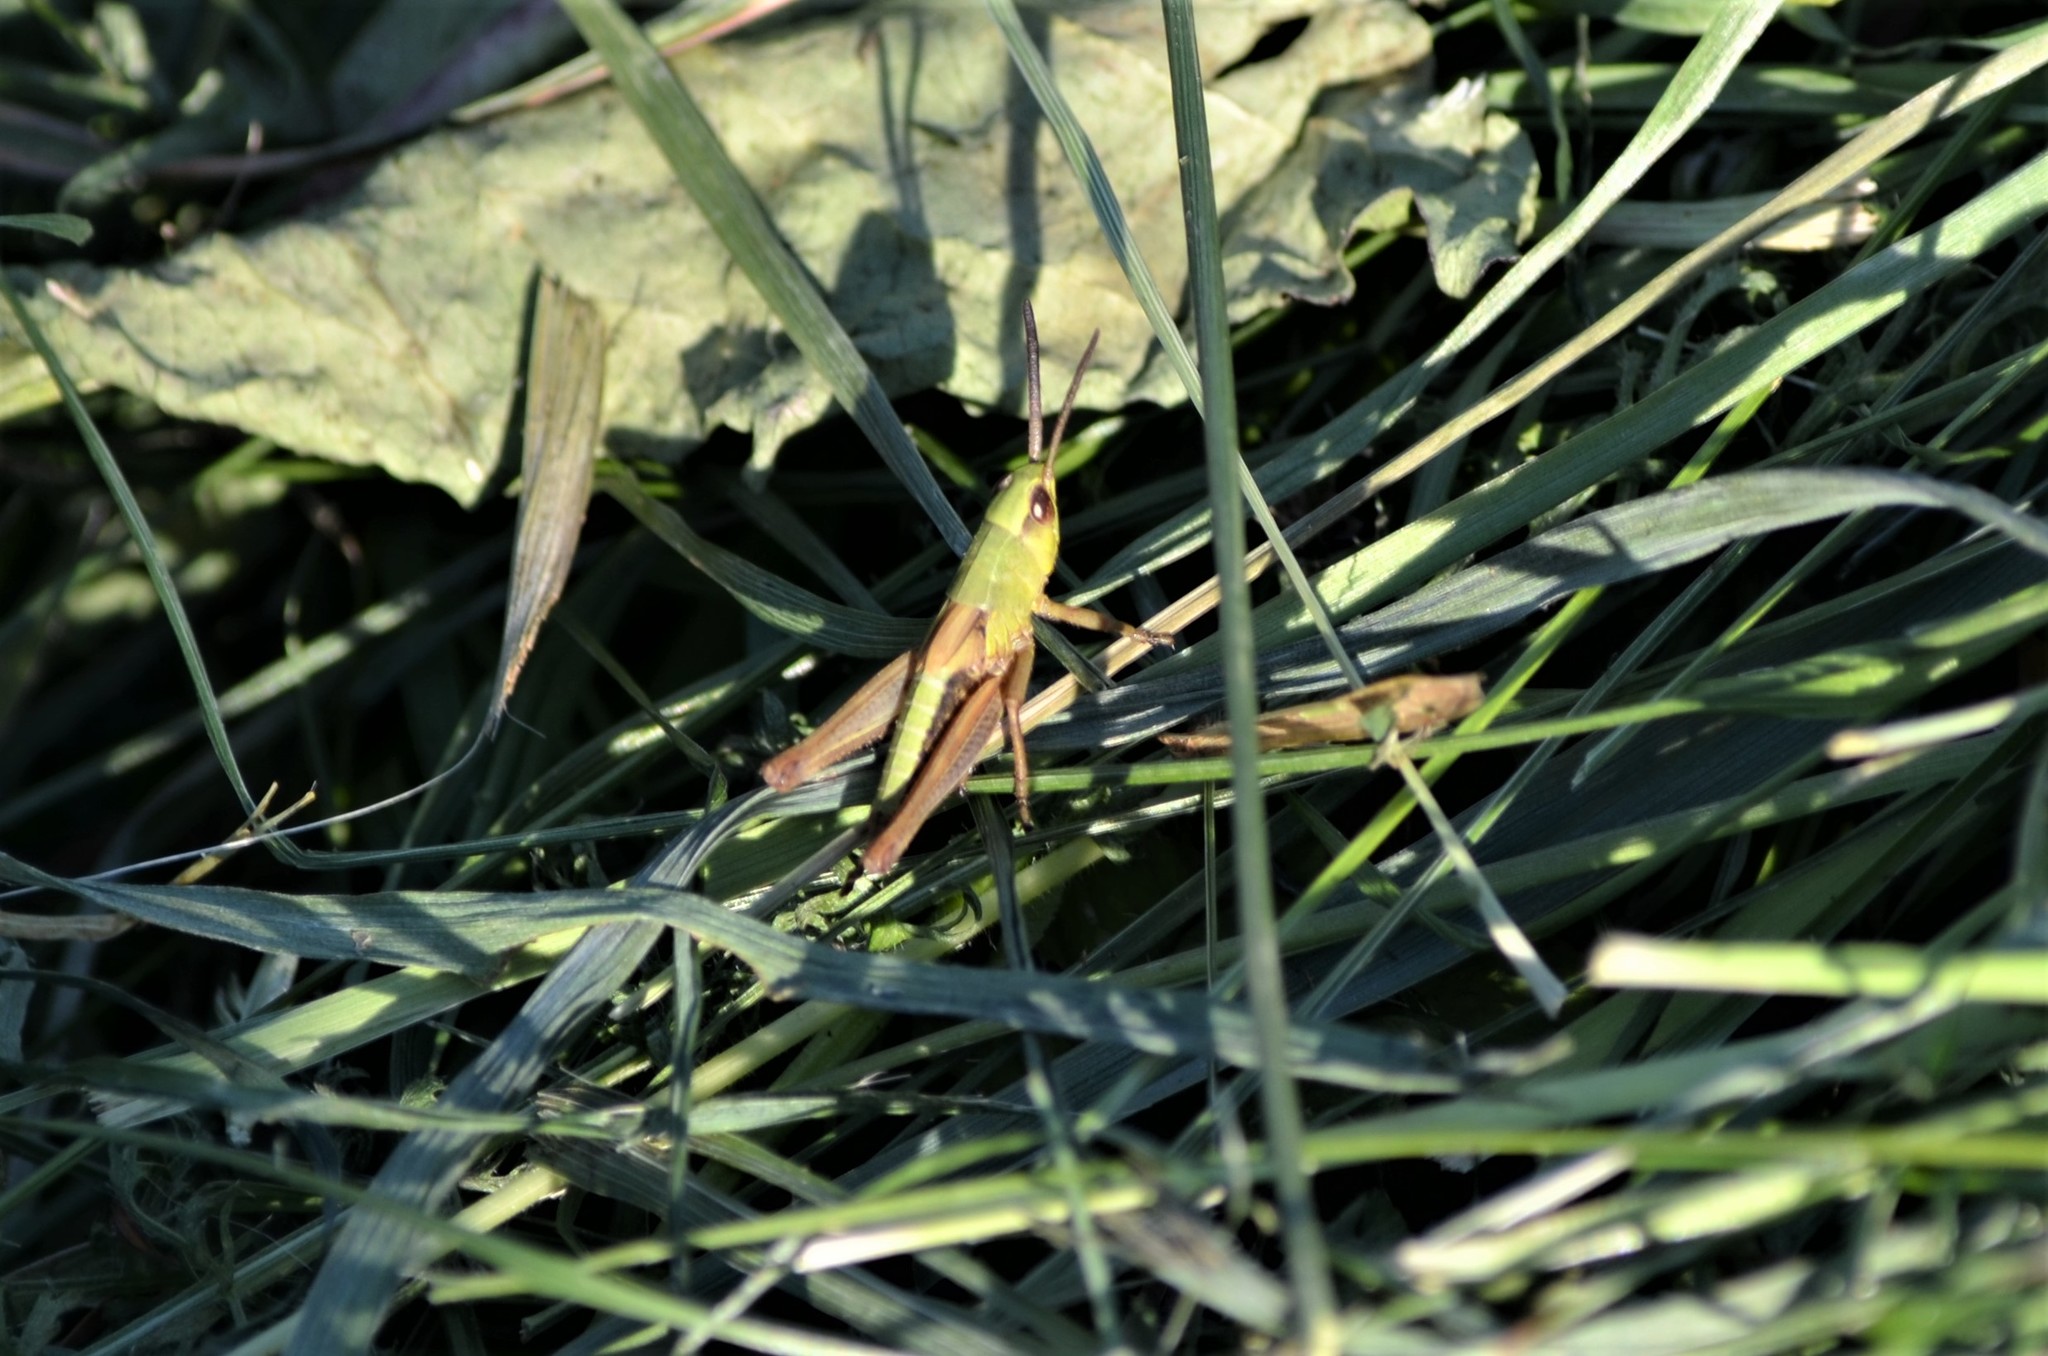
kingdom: Animalia
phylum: Arthropoda
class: Insecta
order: Orthoptera
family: Acrididae
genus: Pseudochorthippus
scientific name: Pseudochorthippus parallelus
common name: Meadow grasshopper
